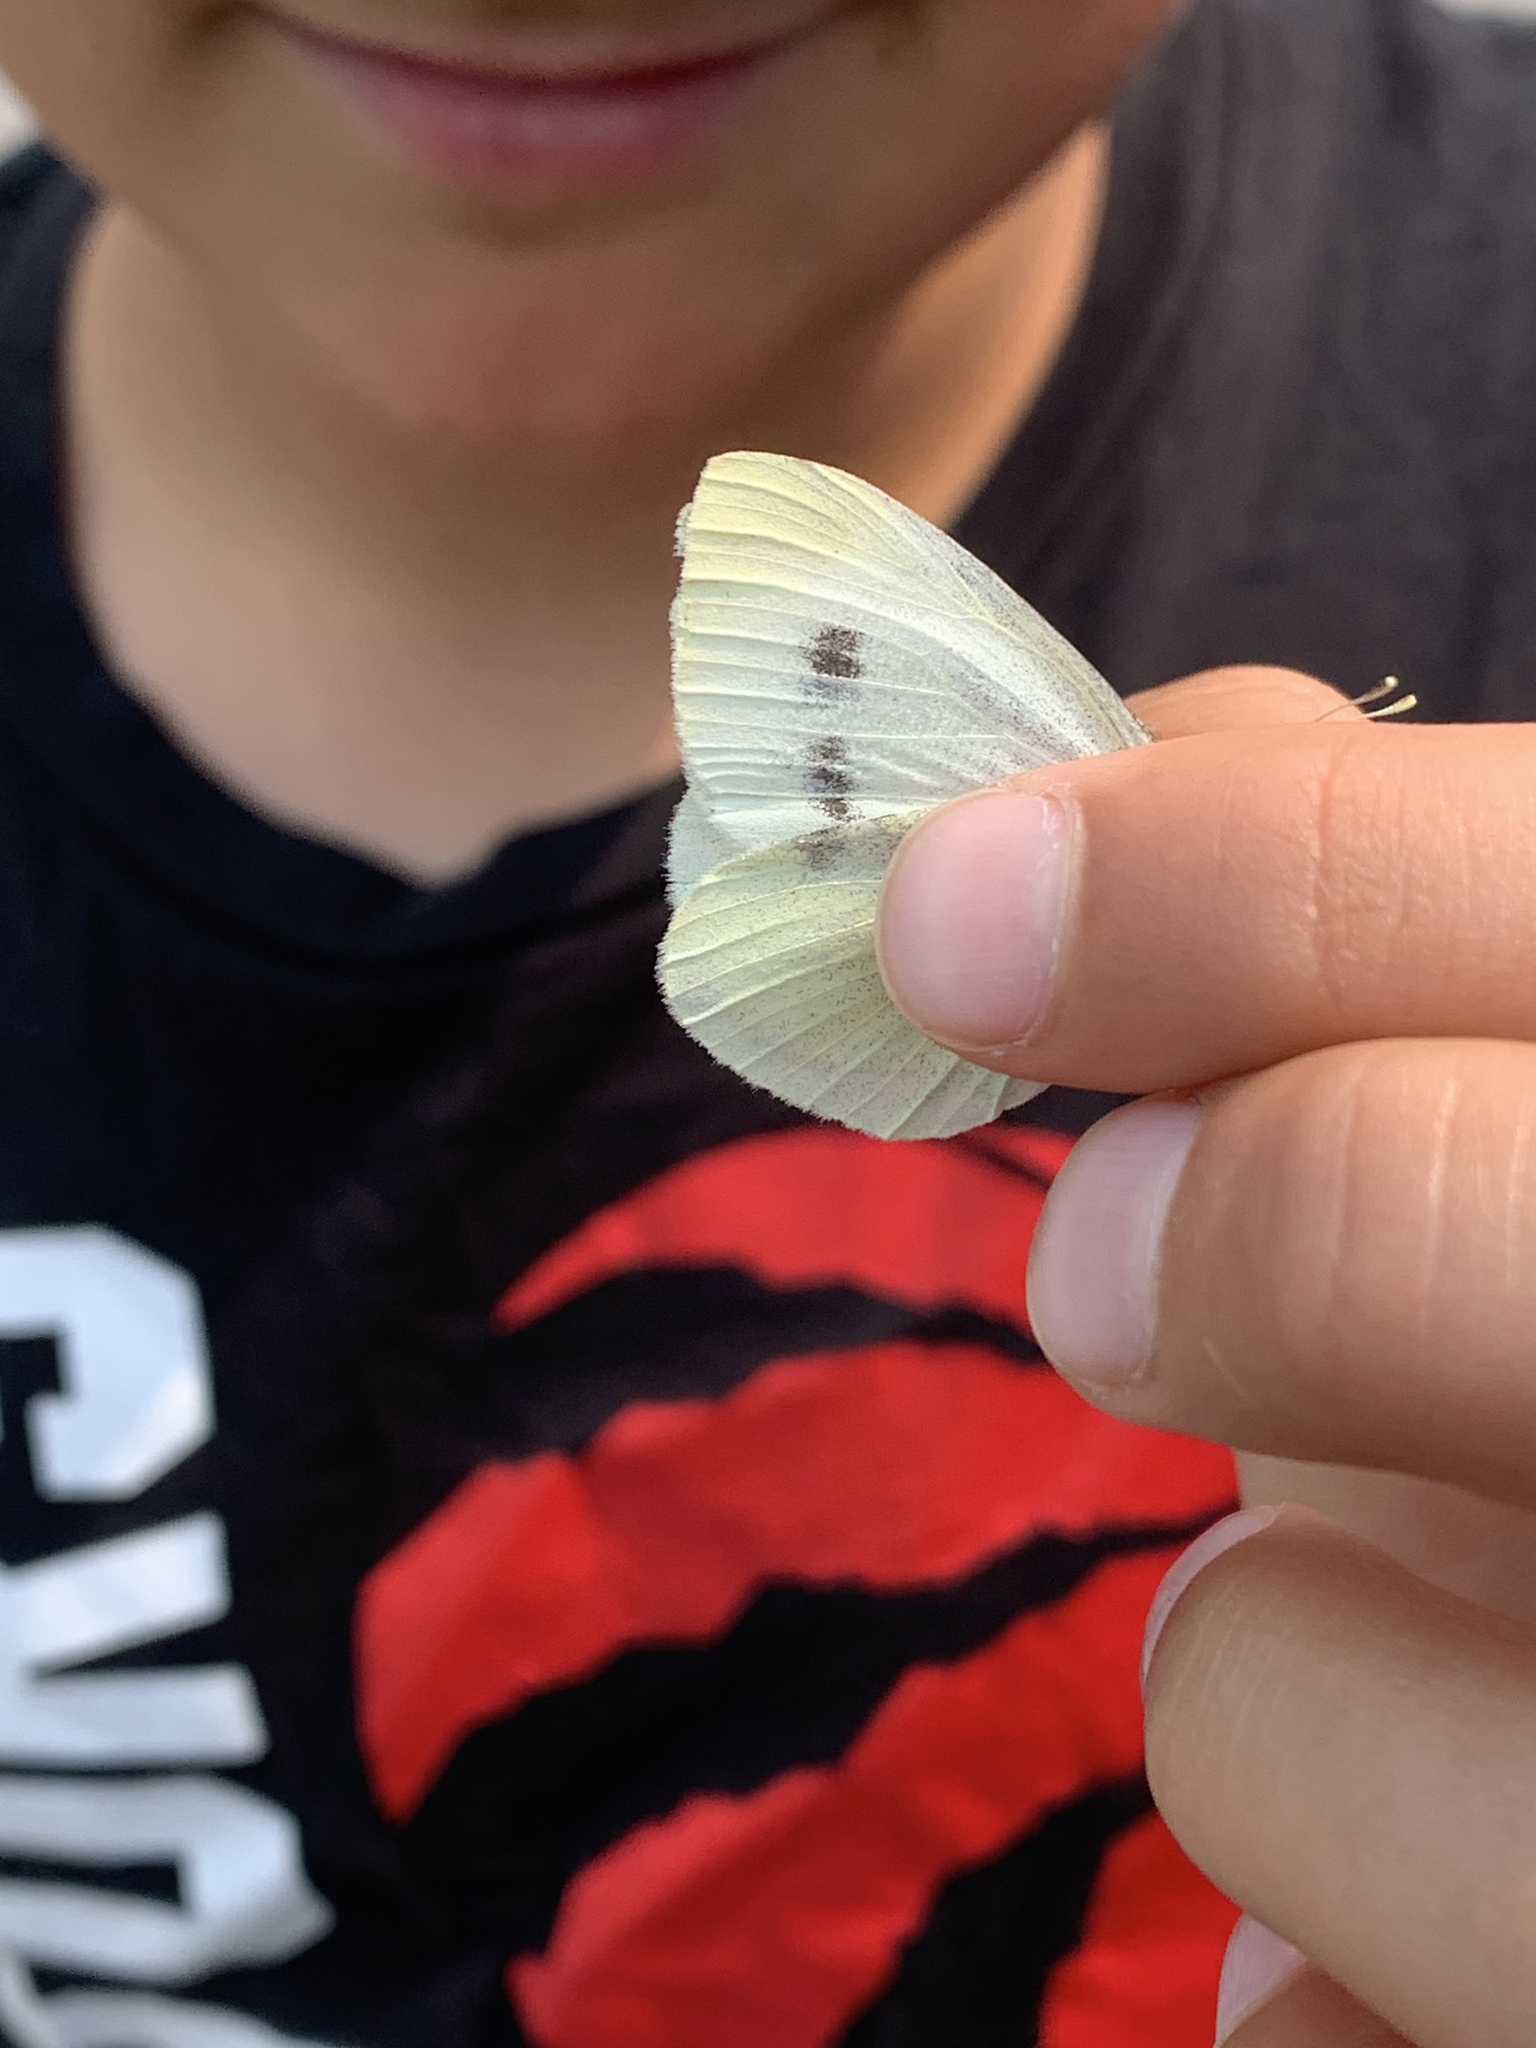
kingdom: Animalia
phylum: Arthropoda
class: Insecta
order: Lepidoptera
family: Pieridae
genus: Pieris
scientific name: Pieris rapae
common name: Small white
